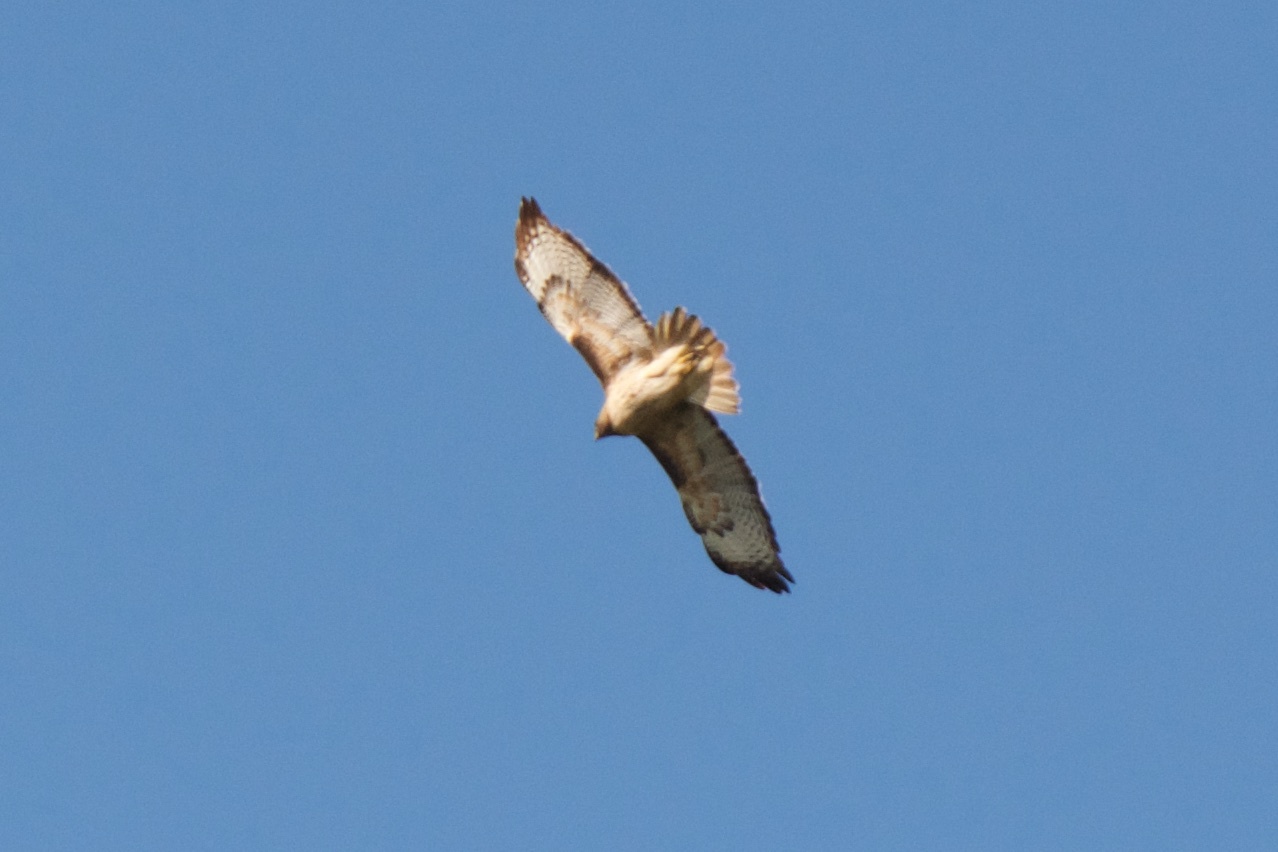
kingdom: Animalia
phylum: Chordata
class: Aves
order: Accipitriformes
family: Accipitridae
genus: Buteo
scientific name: Buteo jamaicensis
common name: Red-tailed hawk
